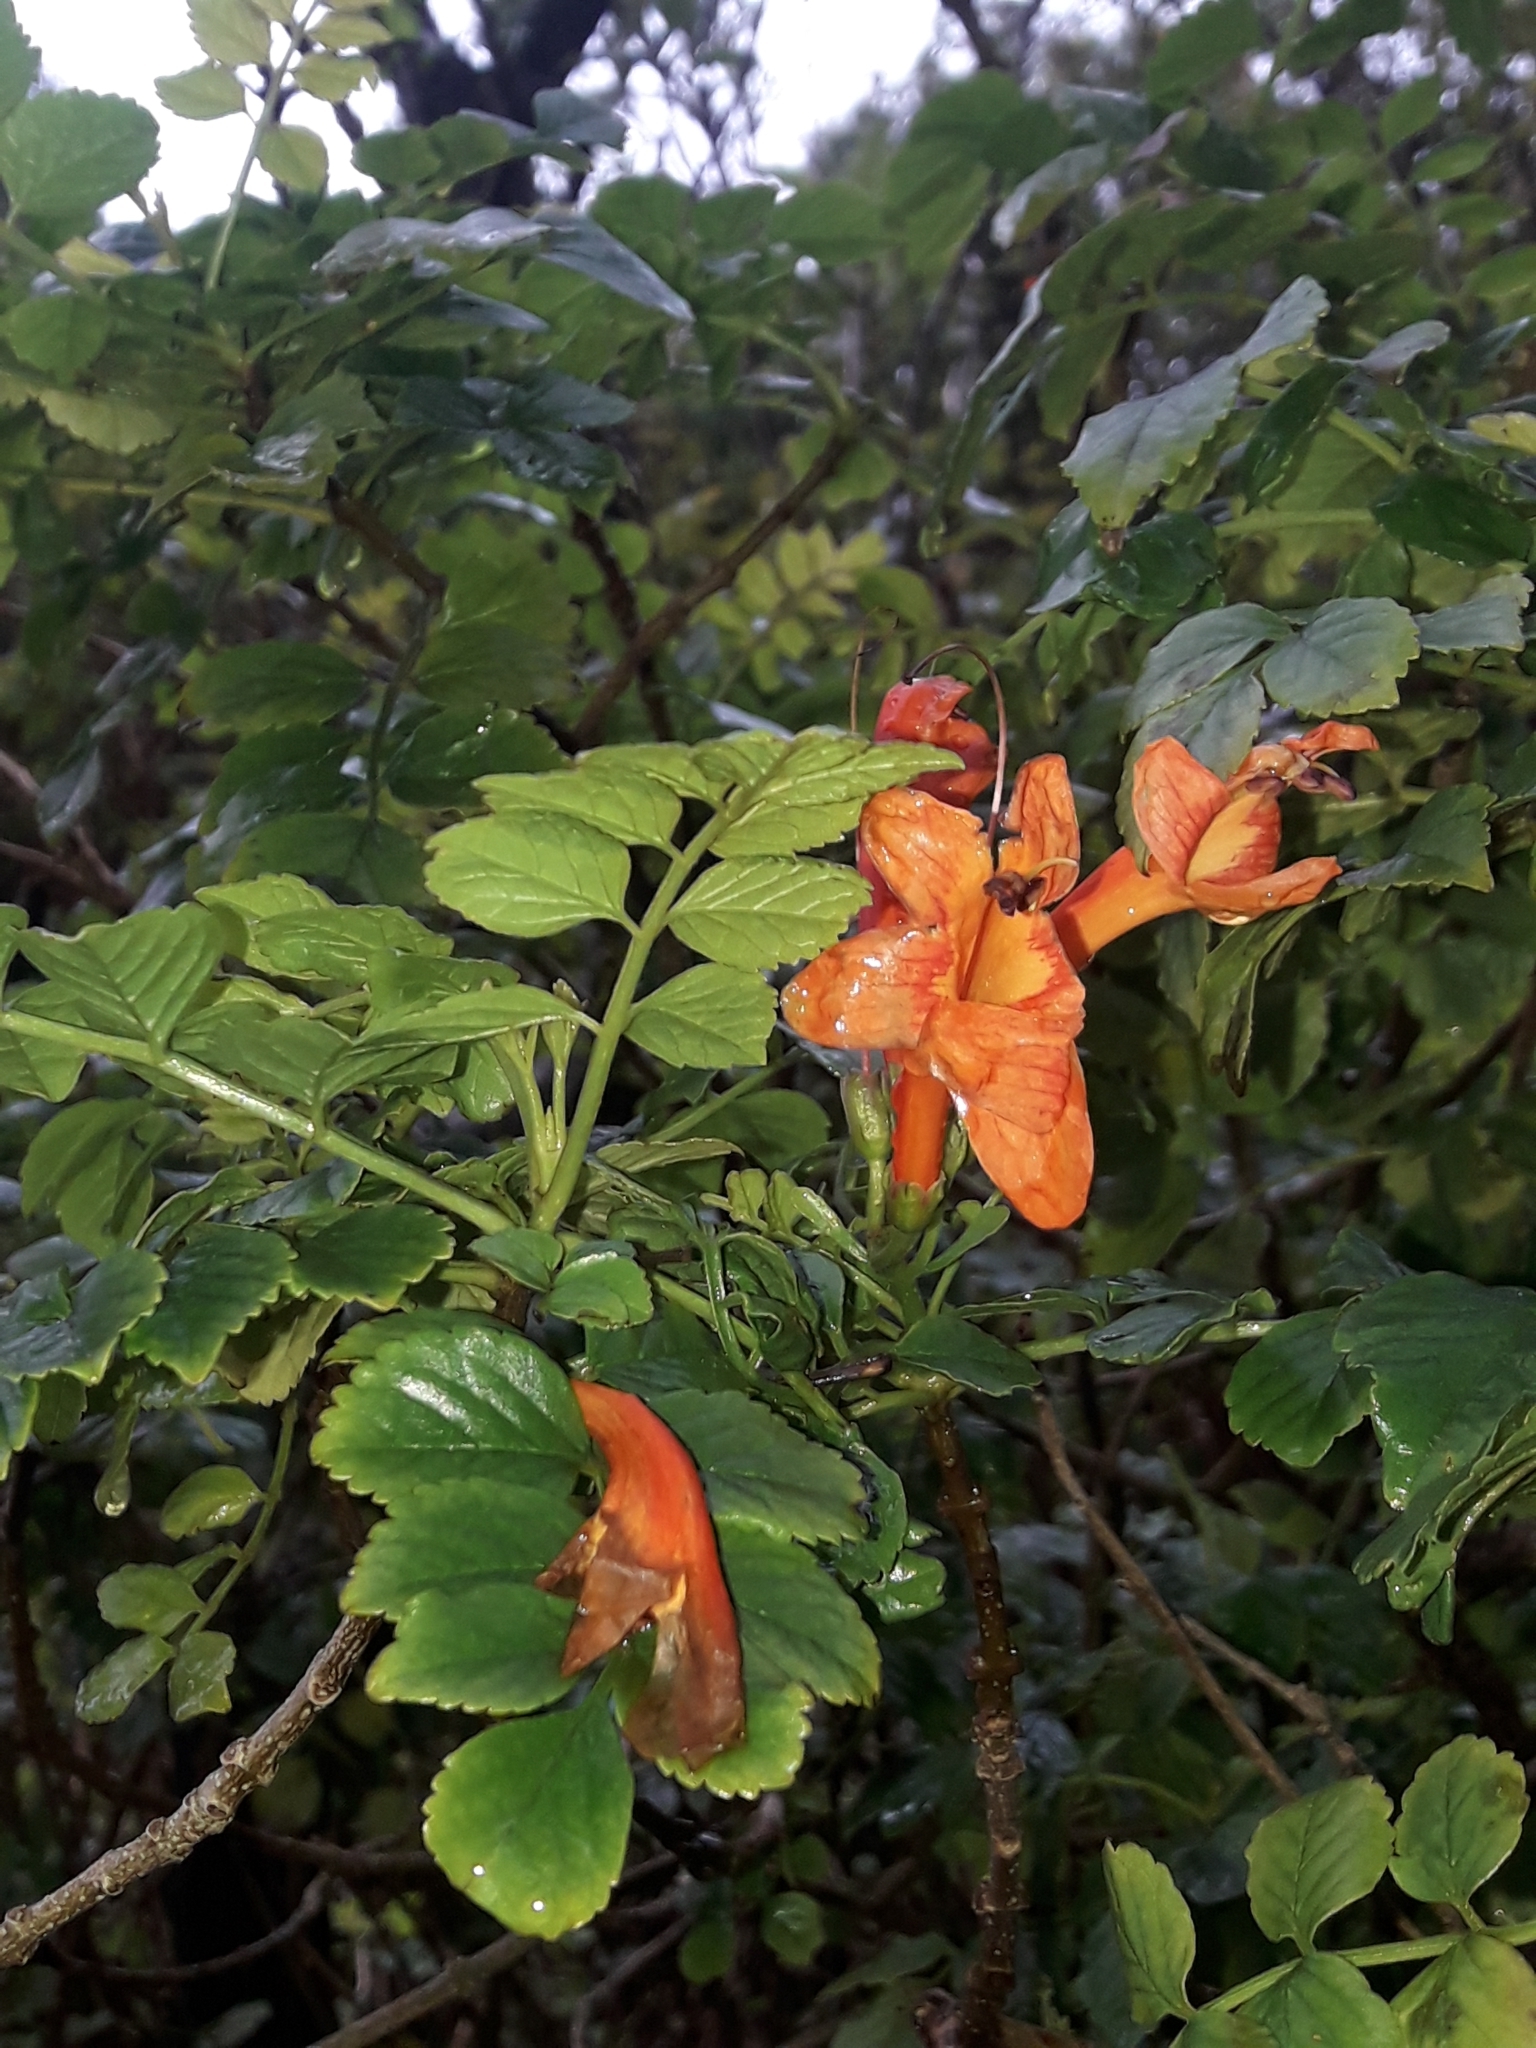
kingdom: Plantae
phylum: Tracheophyta
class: Magnoliopsida
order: Lamiales
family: Bignoniaceae
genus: Tecomaria
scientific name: Tecomaria capensis
